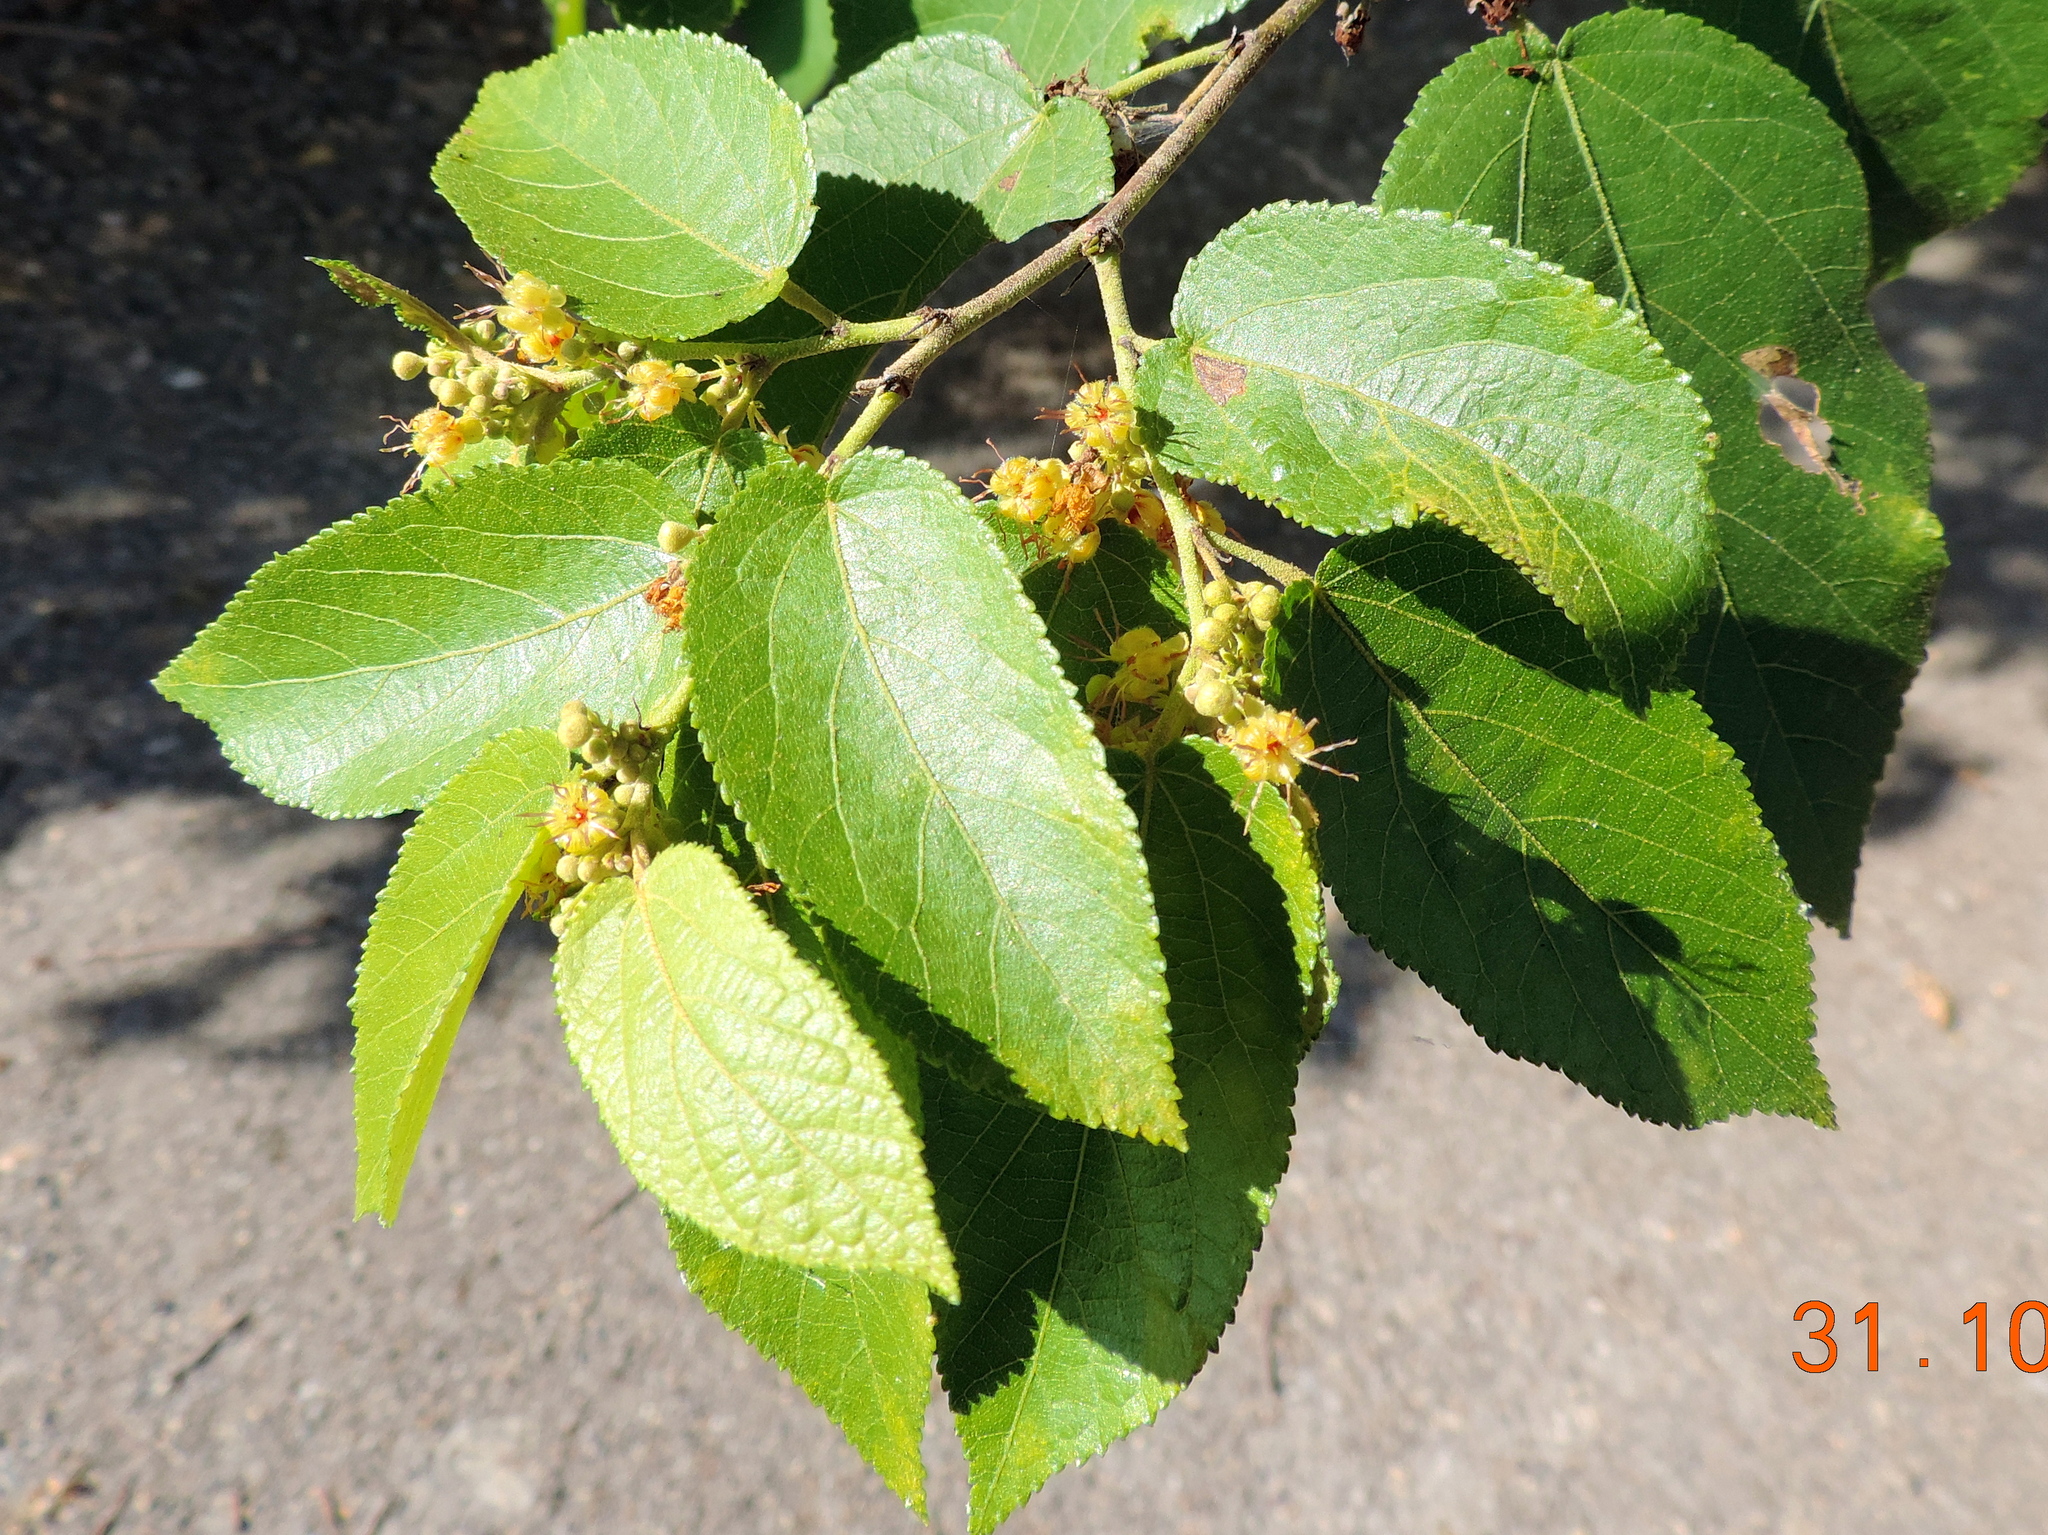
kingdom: Plantae
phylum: Tracheophyta
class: Magnoliopsida
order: Malvales
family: Malvaceae
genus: Guazuma
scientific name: Guazuma ulmifolia
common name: Bastard-cedar
